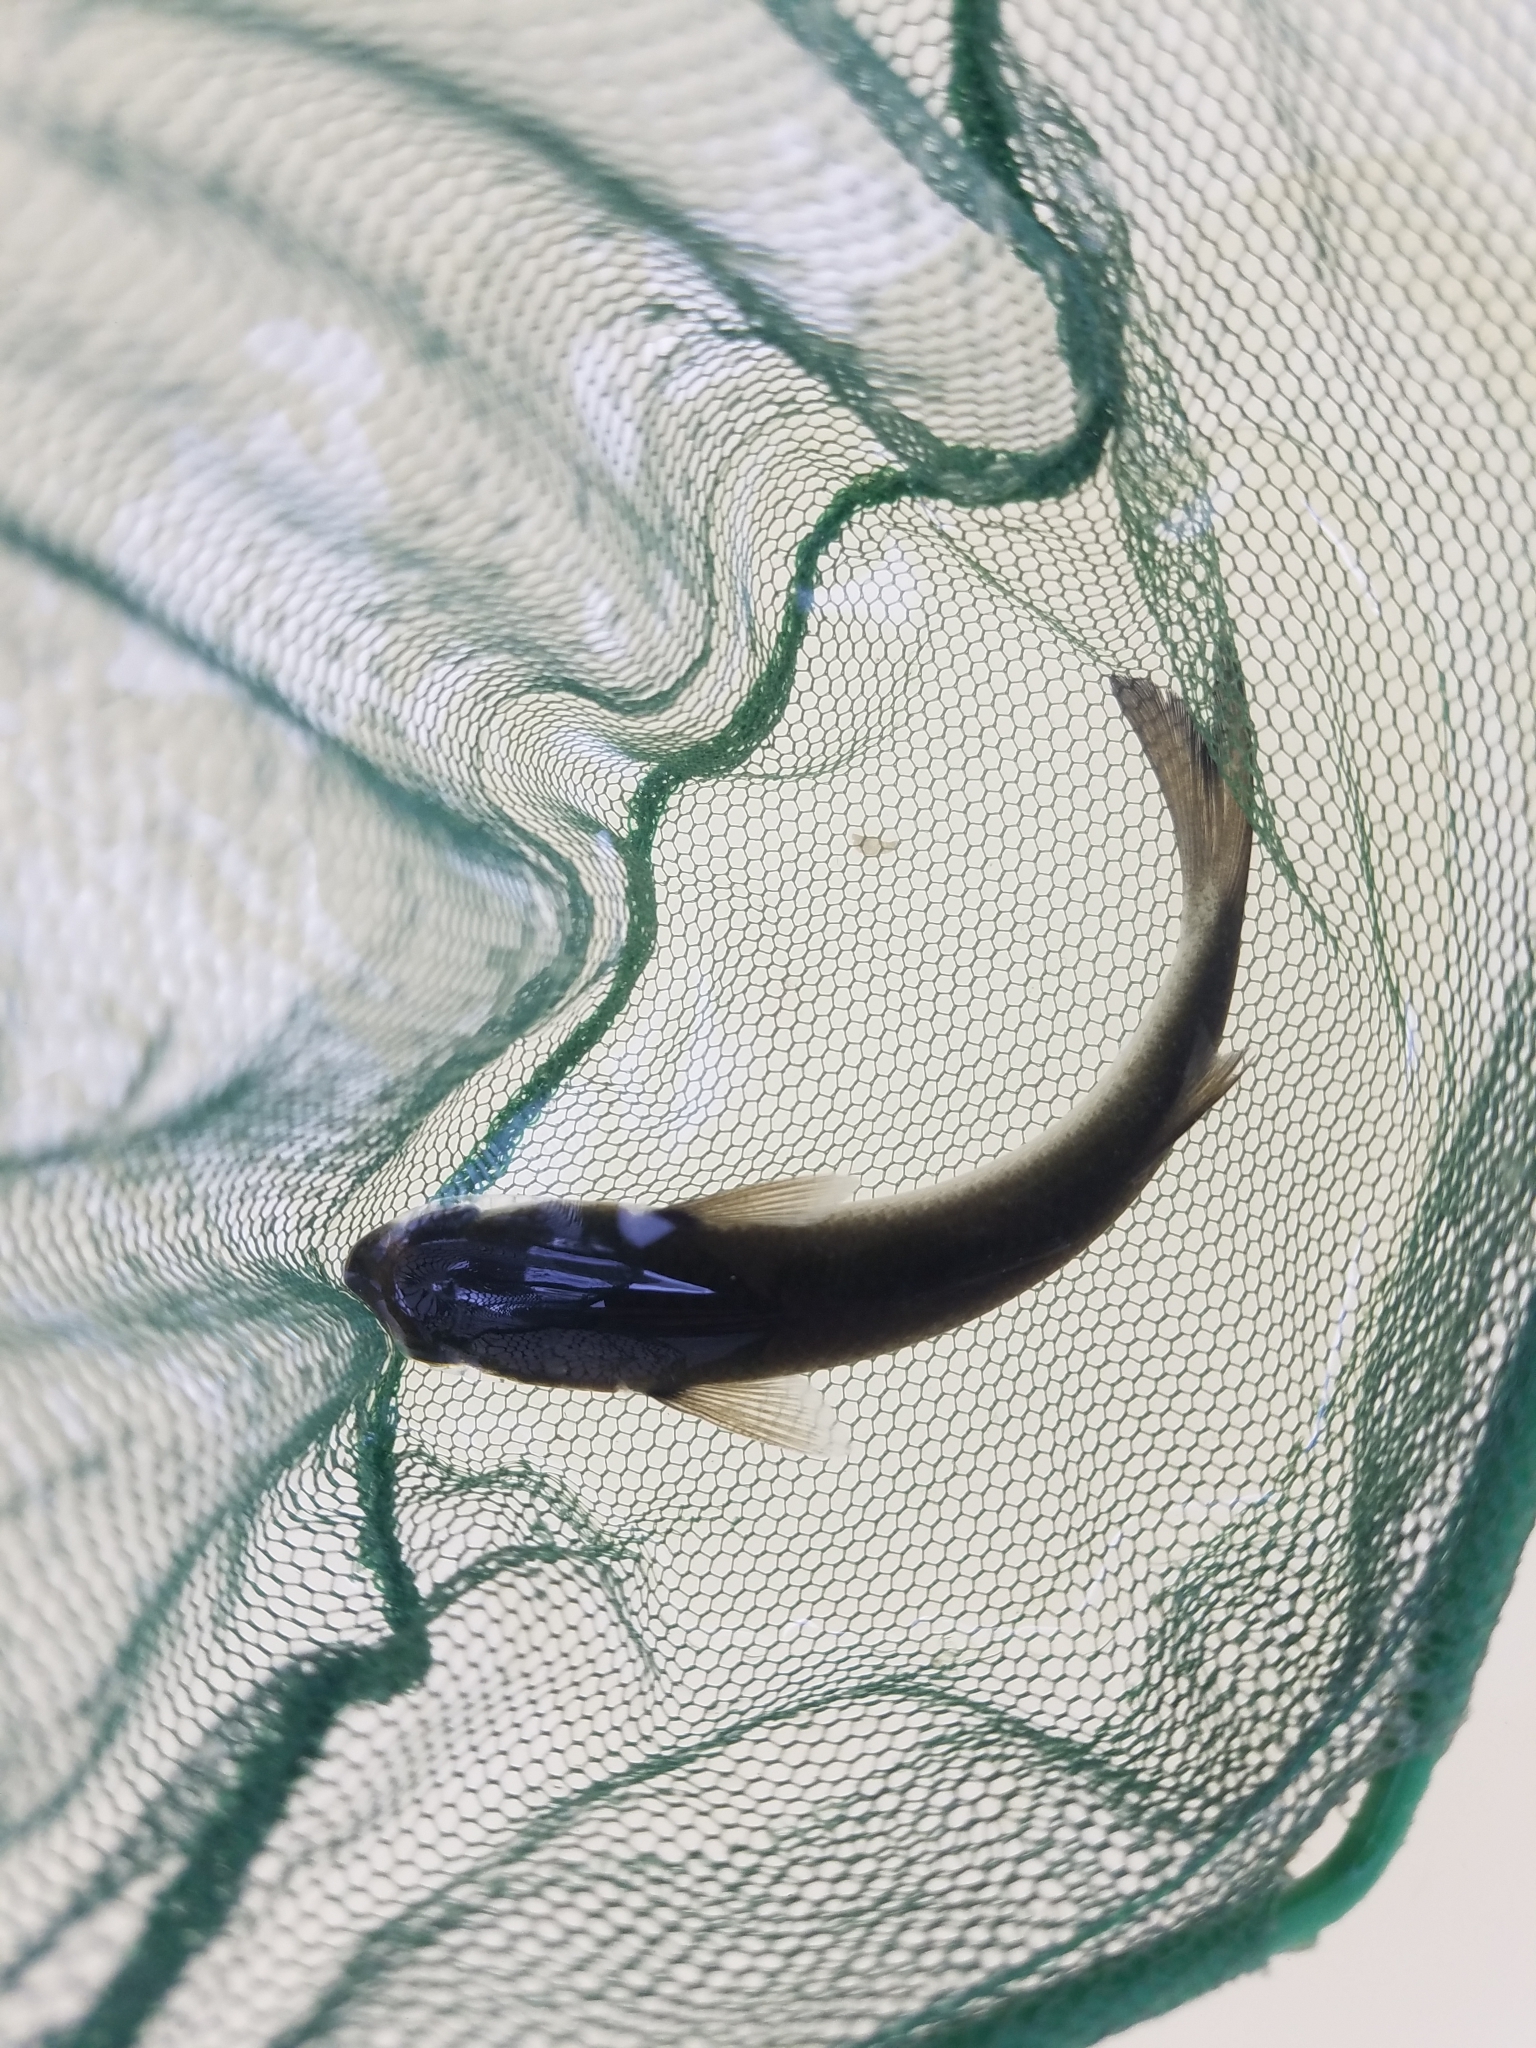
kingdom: Animalia
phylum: Chordata
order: Mugiliformes
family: Mugilidae
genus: Mugil
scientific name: Mugil curema
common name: White mullet
